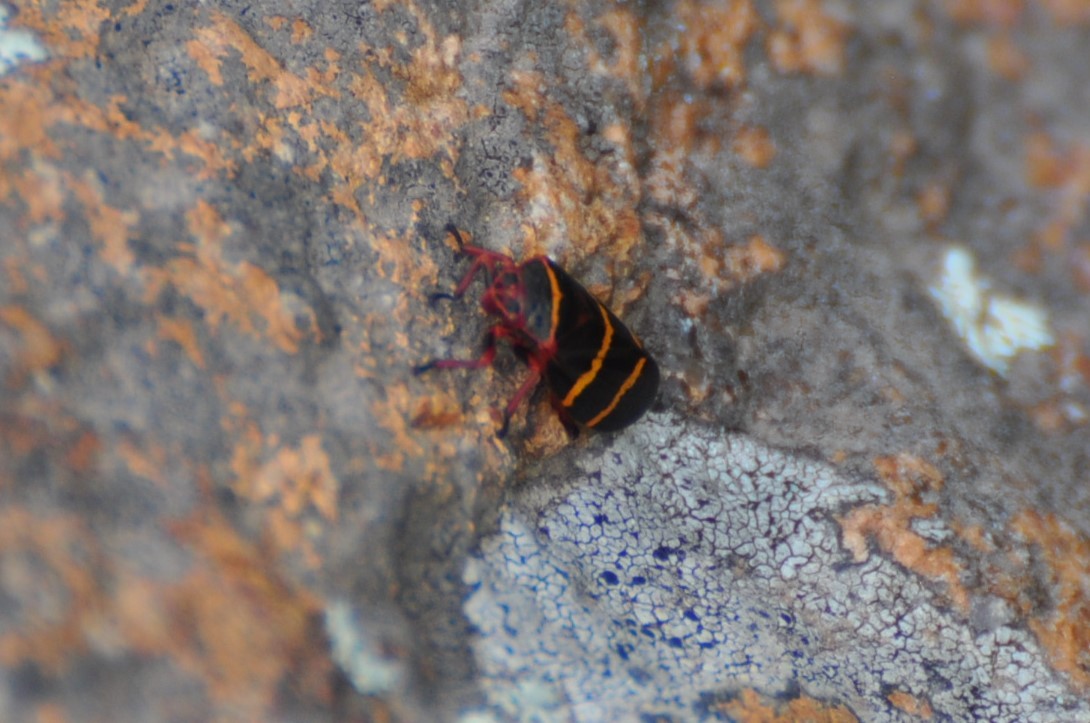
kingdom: Animalia
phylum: Arthropoda
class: Insecta
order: Hemiptera
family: Cercopidae
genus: Prosapia
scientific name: Prosapia bicincta
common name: Twolined spittlebug
